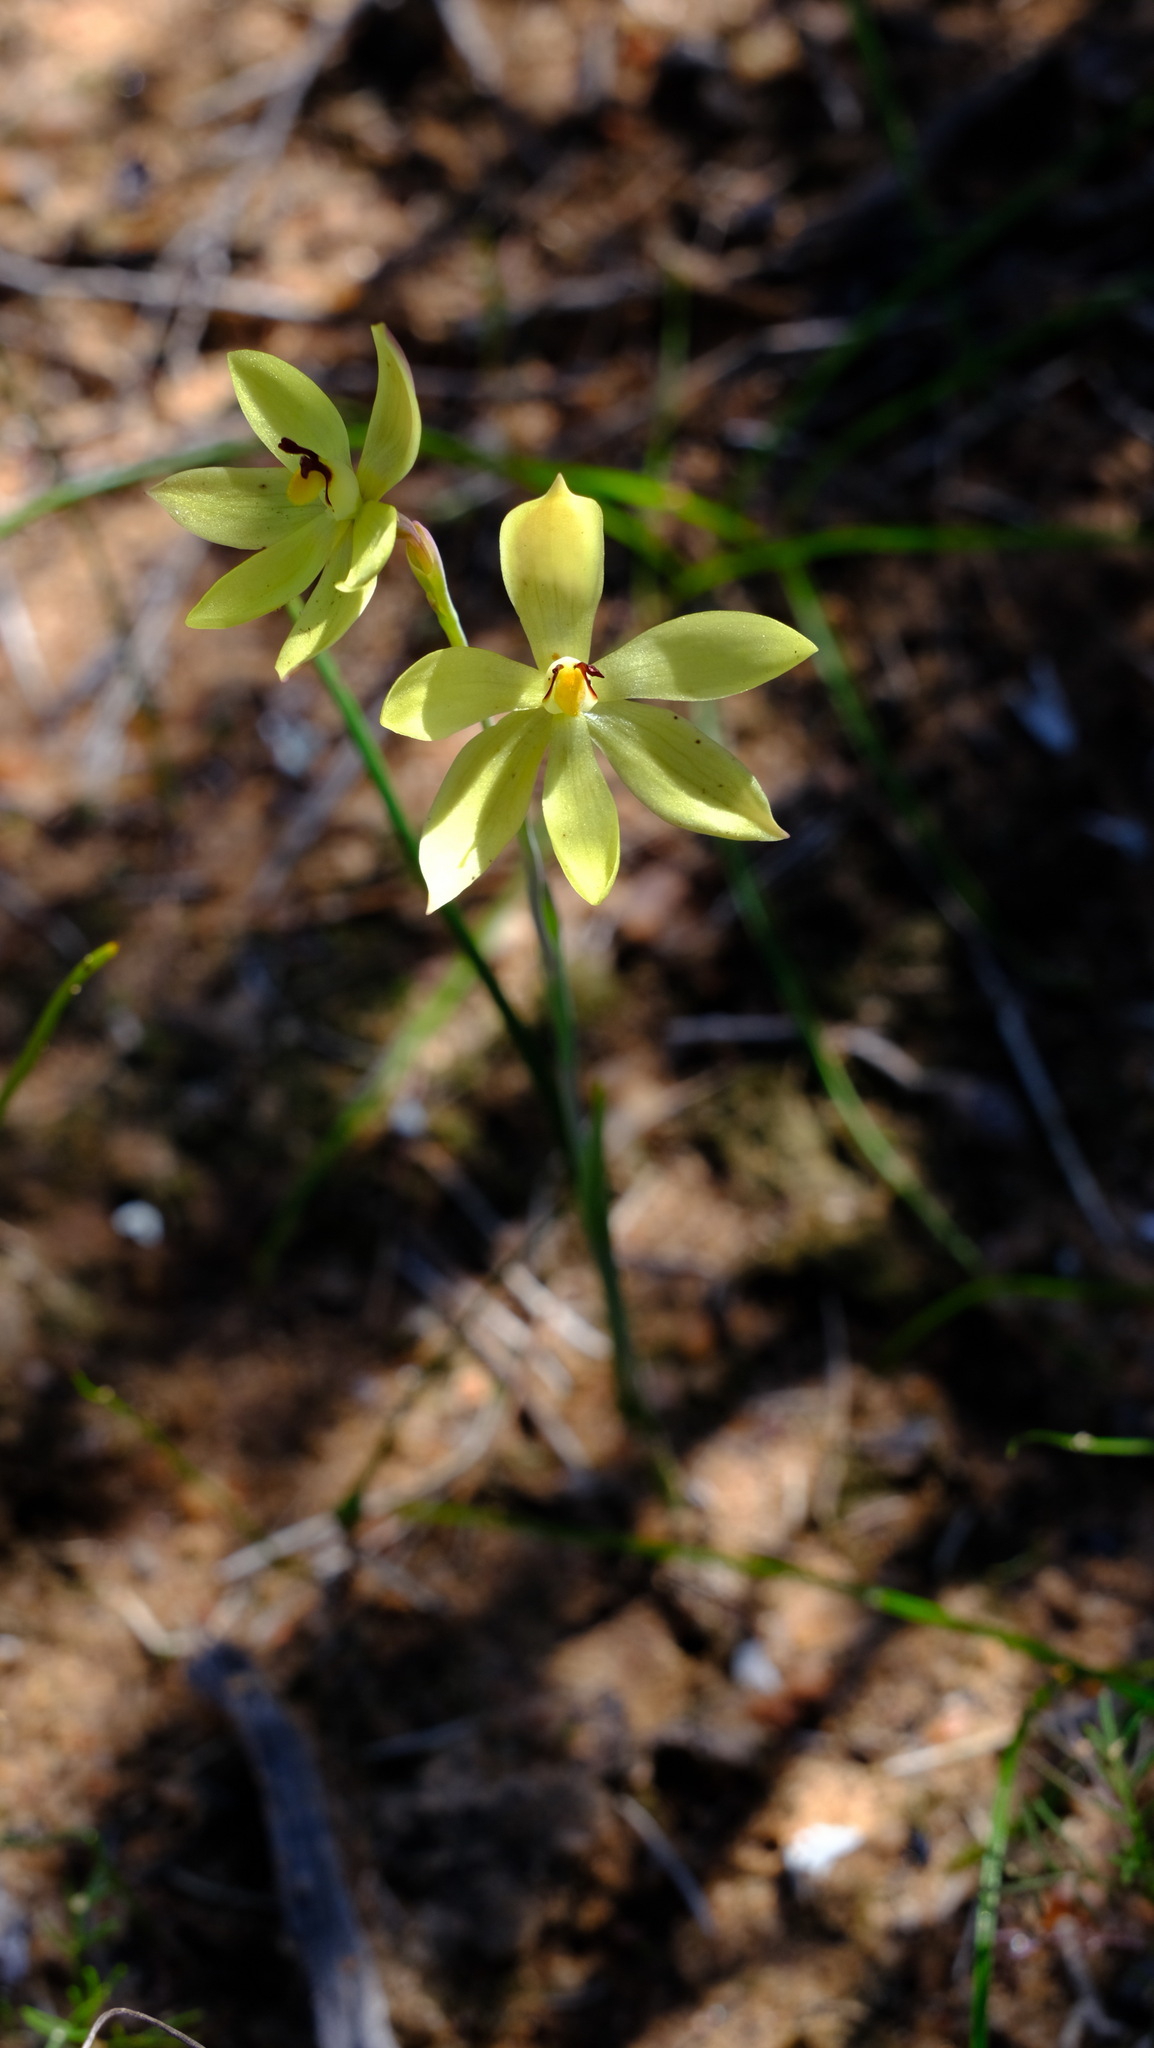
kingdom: Plantae
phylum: Tracheophyta
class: Liliopsida
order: Asparagales
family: Orchidaceae
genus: Thelymitra
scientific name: Thelymitra antennifera
